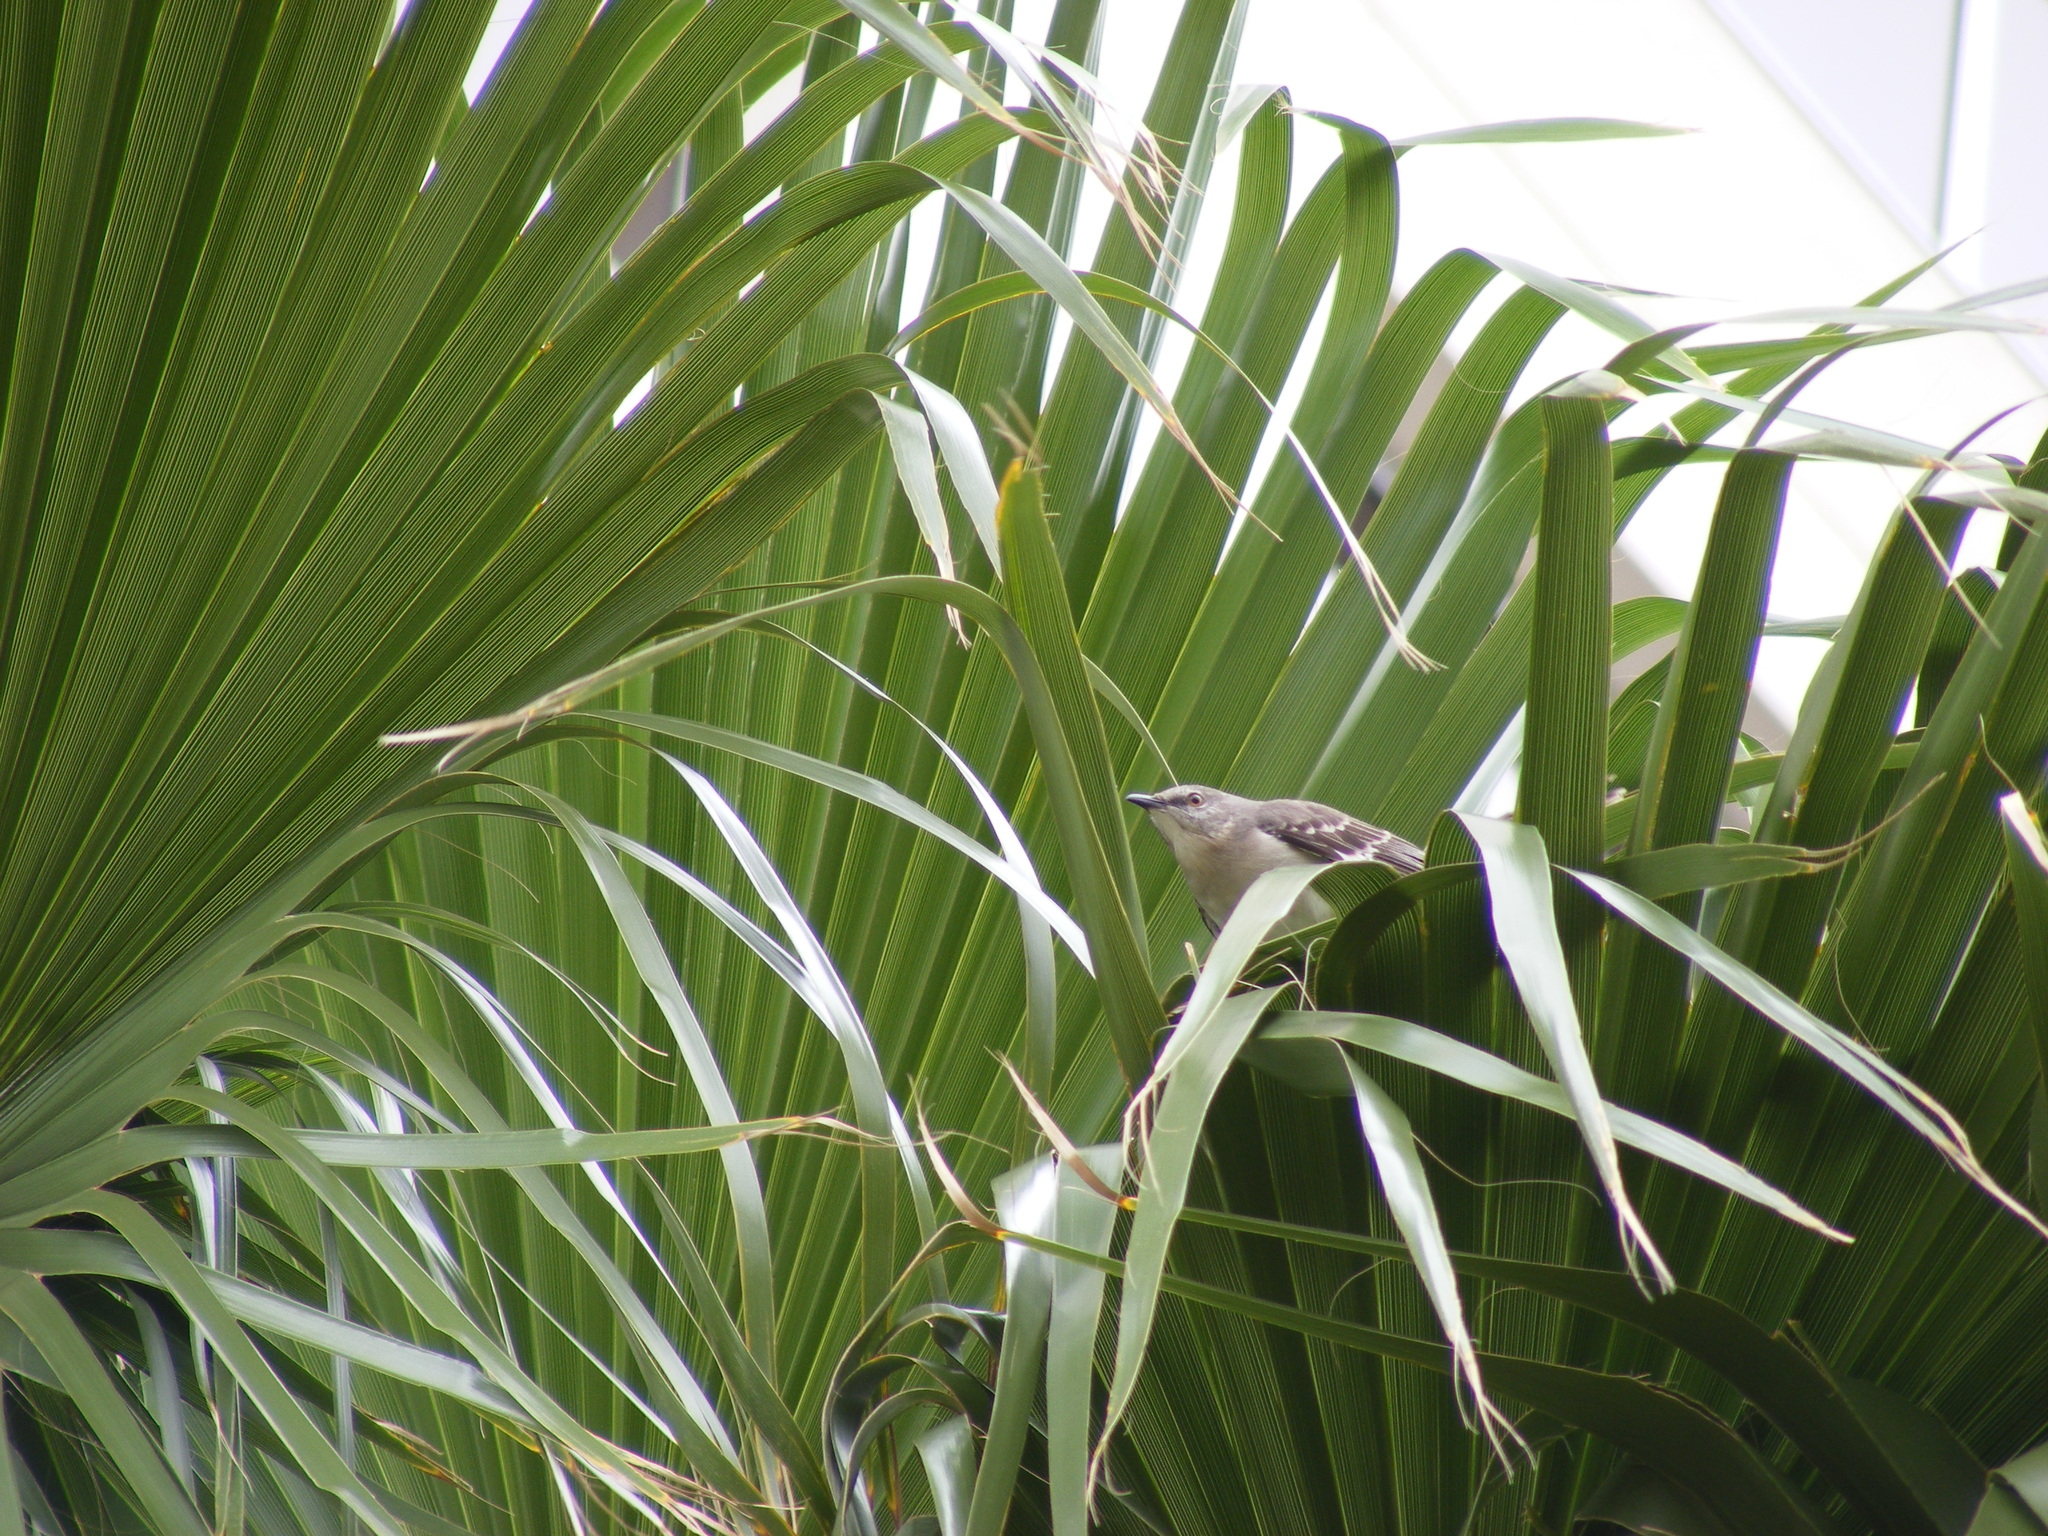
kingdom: Animalia
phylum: Chordata
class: Aves
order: Passeriformes
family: Mimidae
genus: Mimus
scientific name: Mimus polyglottos
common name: Northern mockingbird
